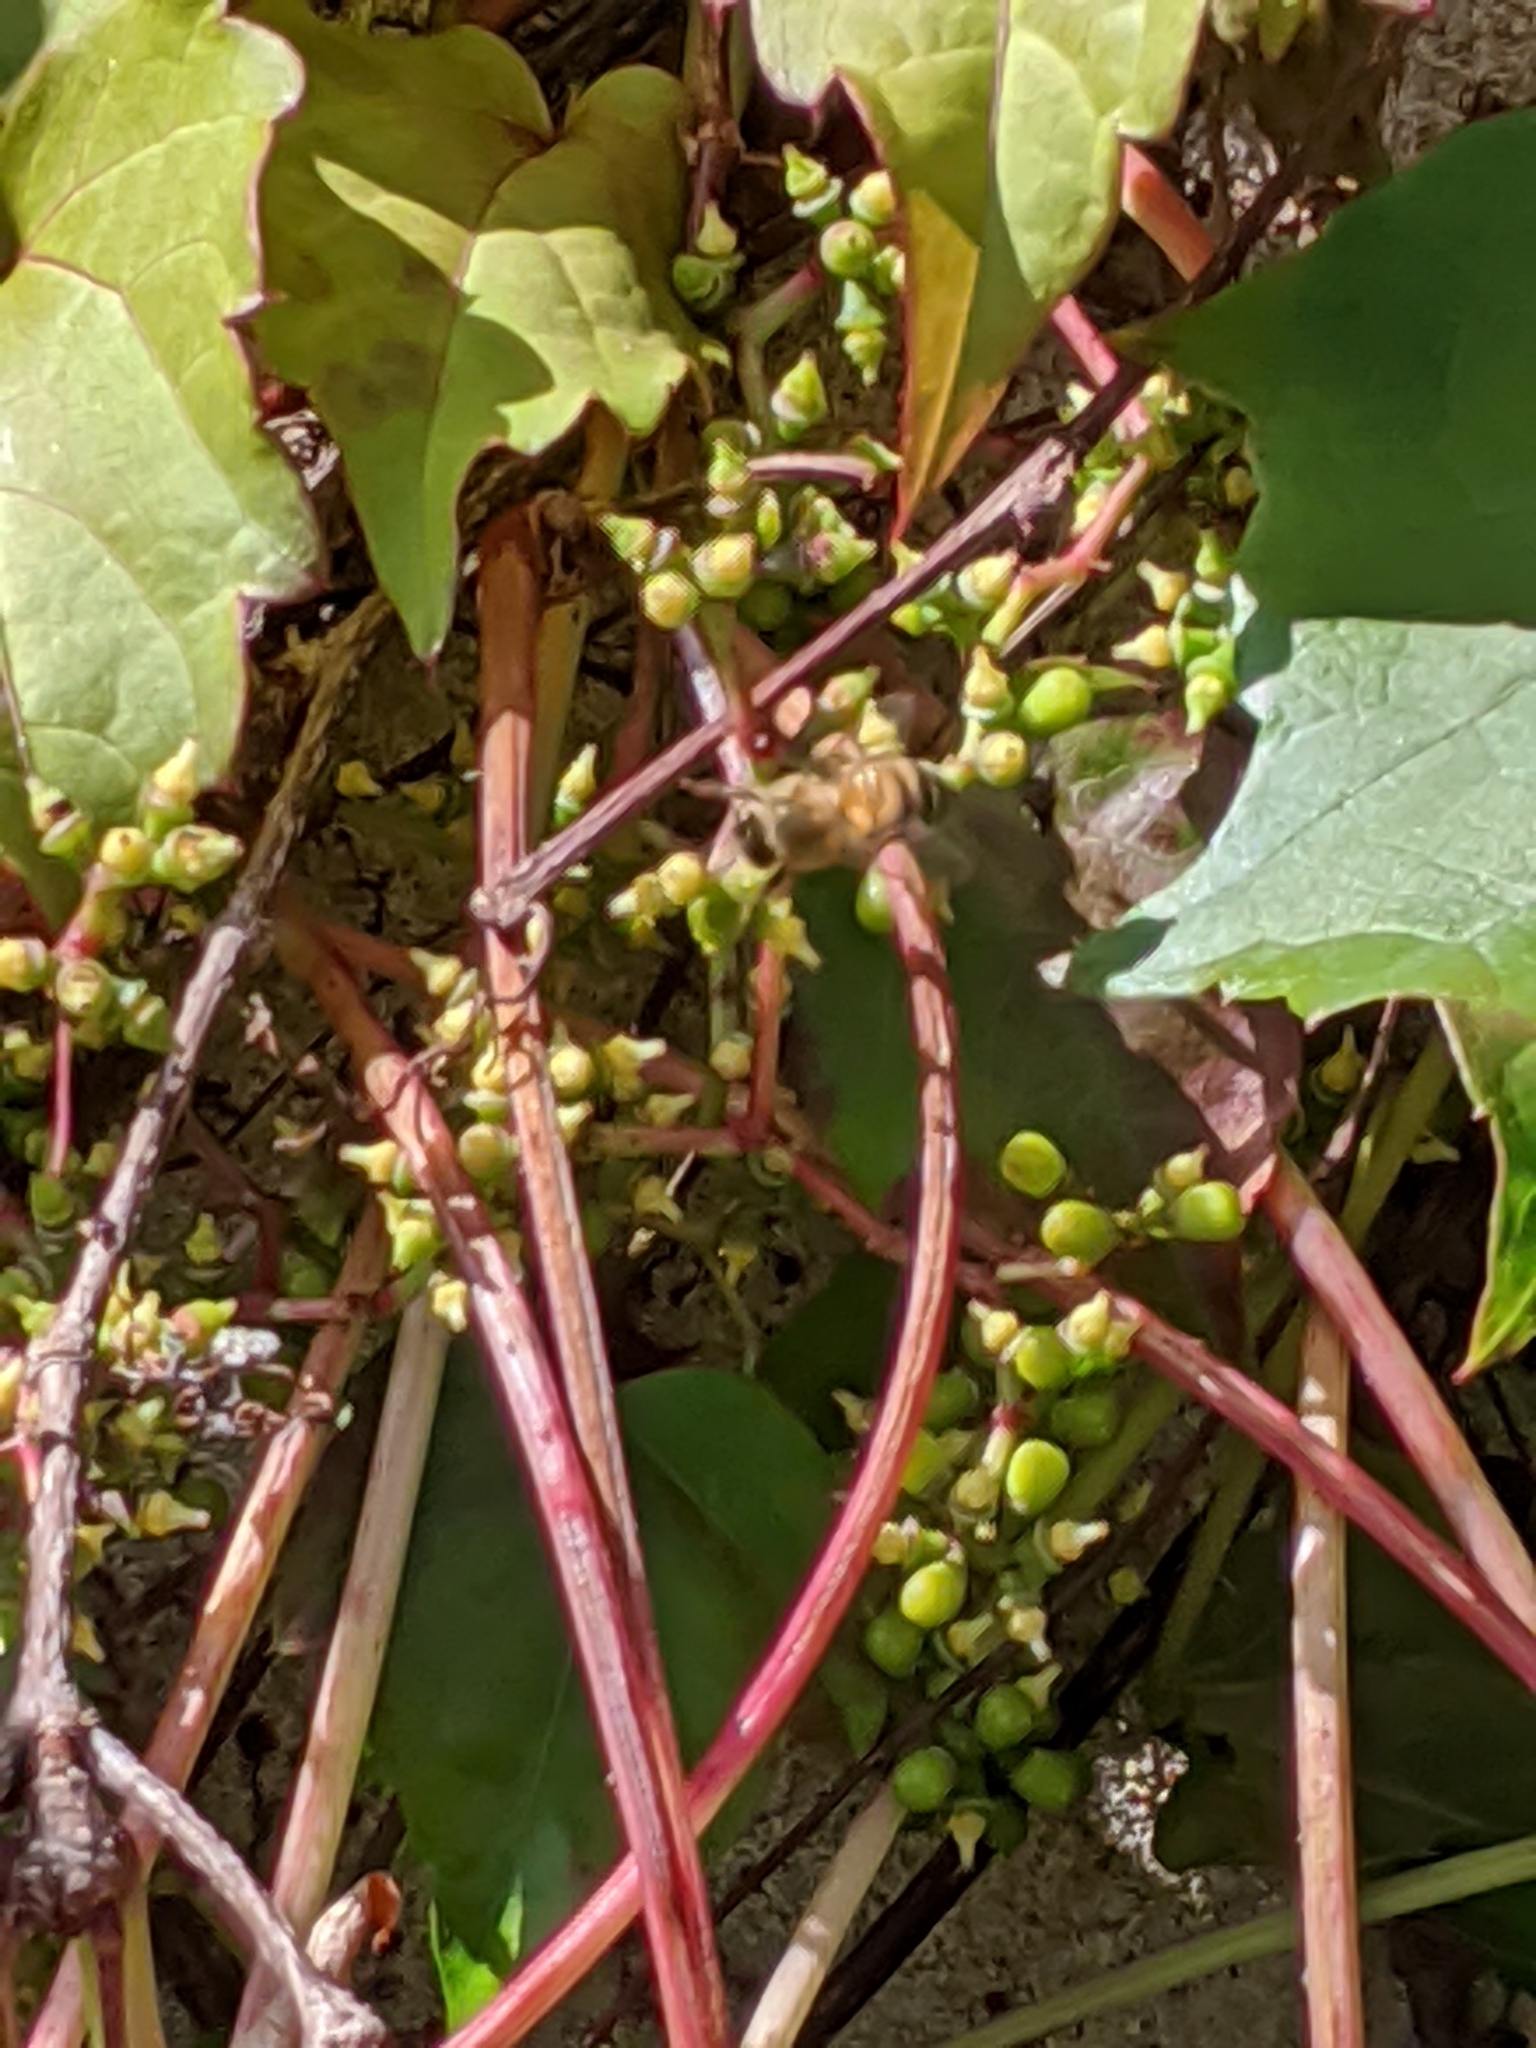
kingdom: Animalia
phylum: Arthropoda
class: Insecta
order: Hymenoptera
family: Apidae
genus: Apis
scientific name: Apis mellifera
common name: Honey bee
